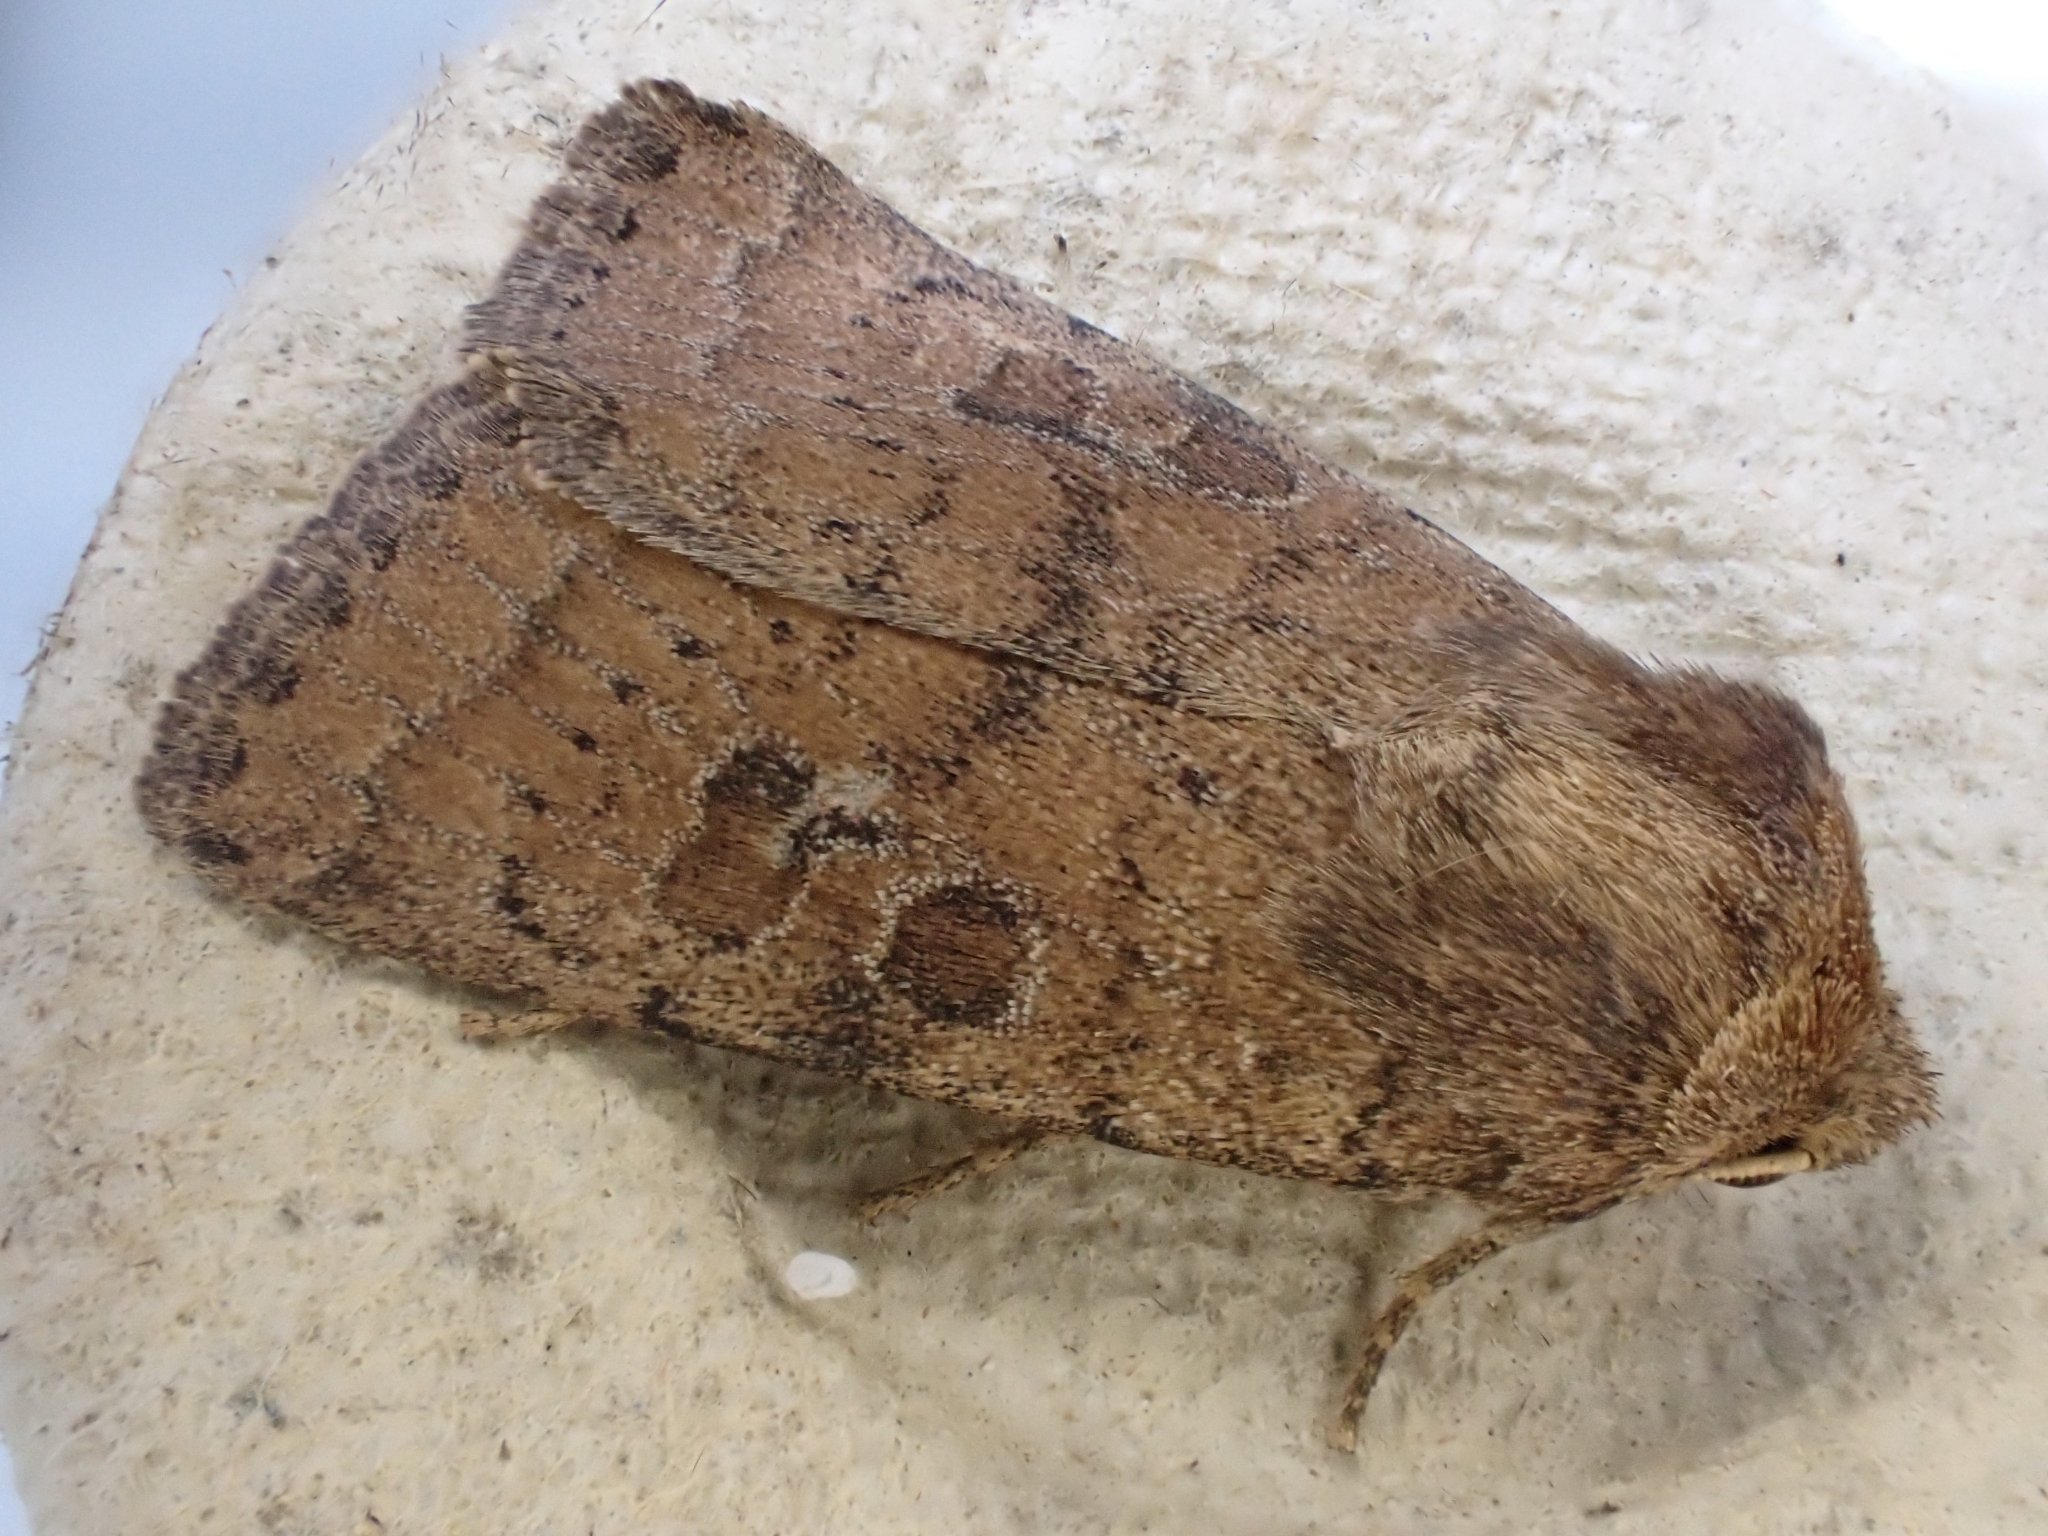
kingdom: Animalia
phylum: Arthropoda
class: Insecta
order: Lepidoptera
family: Noctuidae
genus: Hoplodrina
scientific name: Hoplodrina octogenaria
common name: Uncertain
